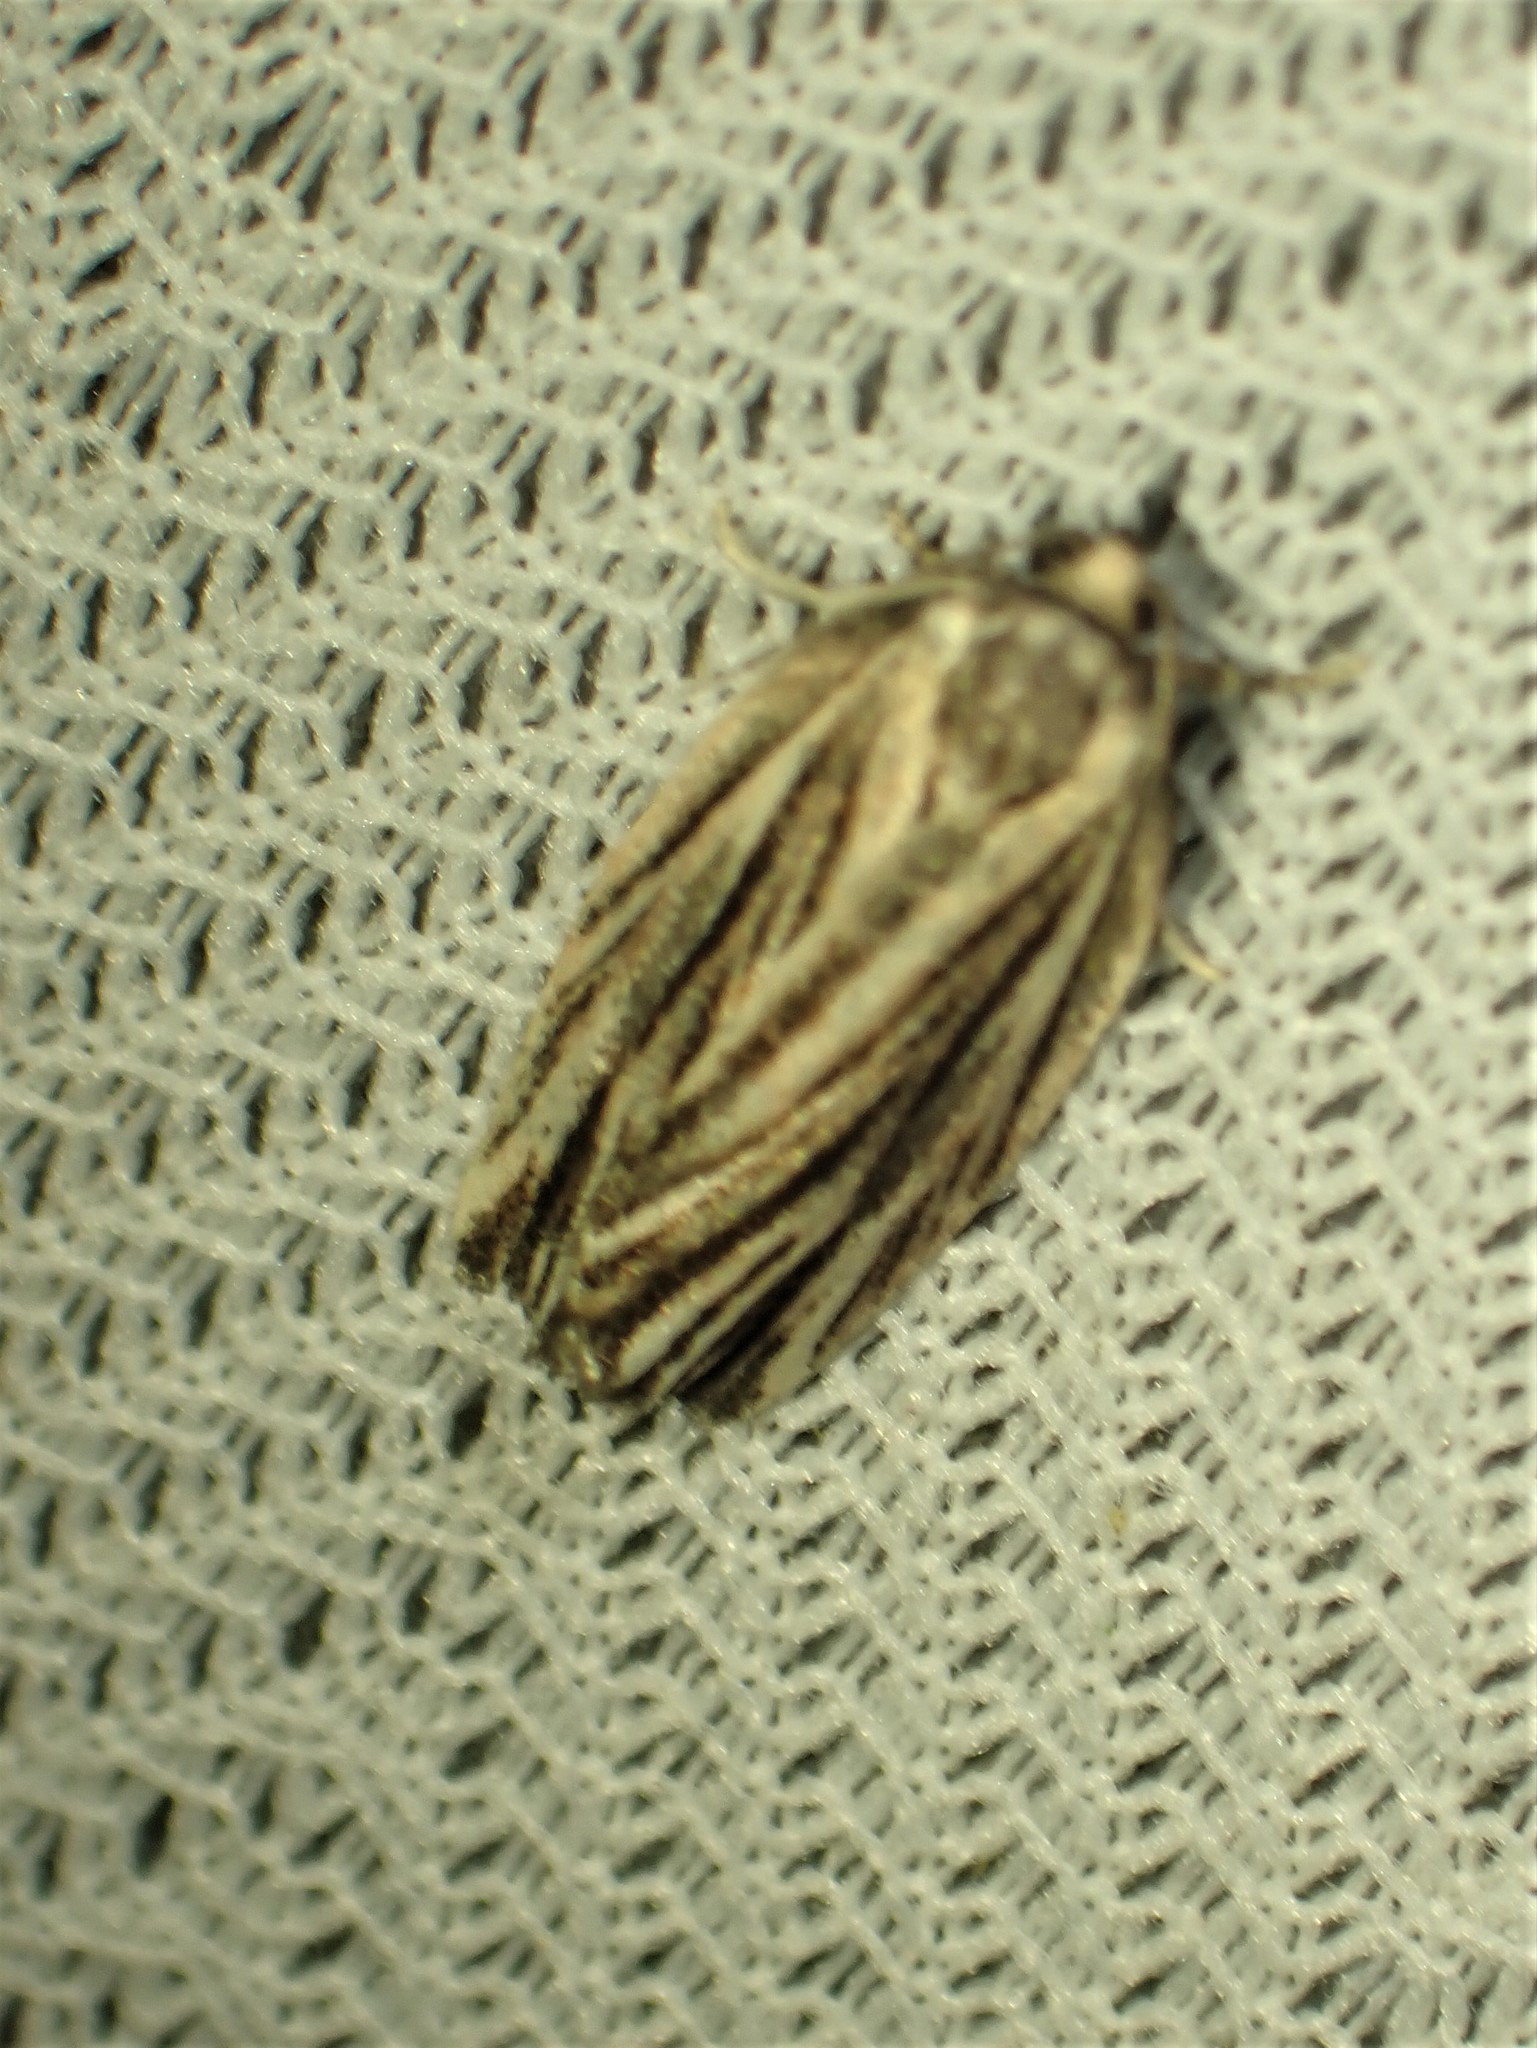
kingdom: Animalia
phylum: Arthropoda
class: Insecta
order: Lepidoptera
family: Tortricidae
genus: Archips
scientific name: Archips strianus
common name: Striated tortrix moth
